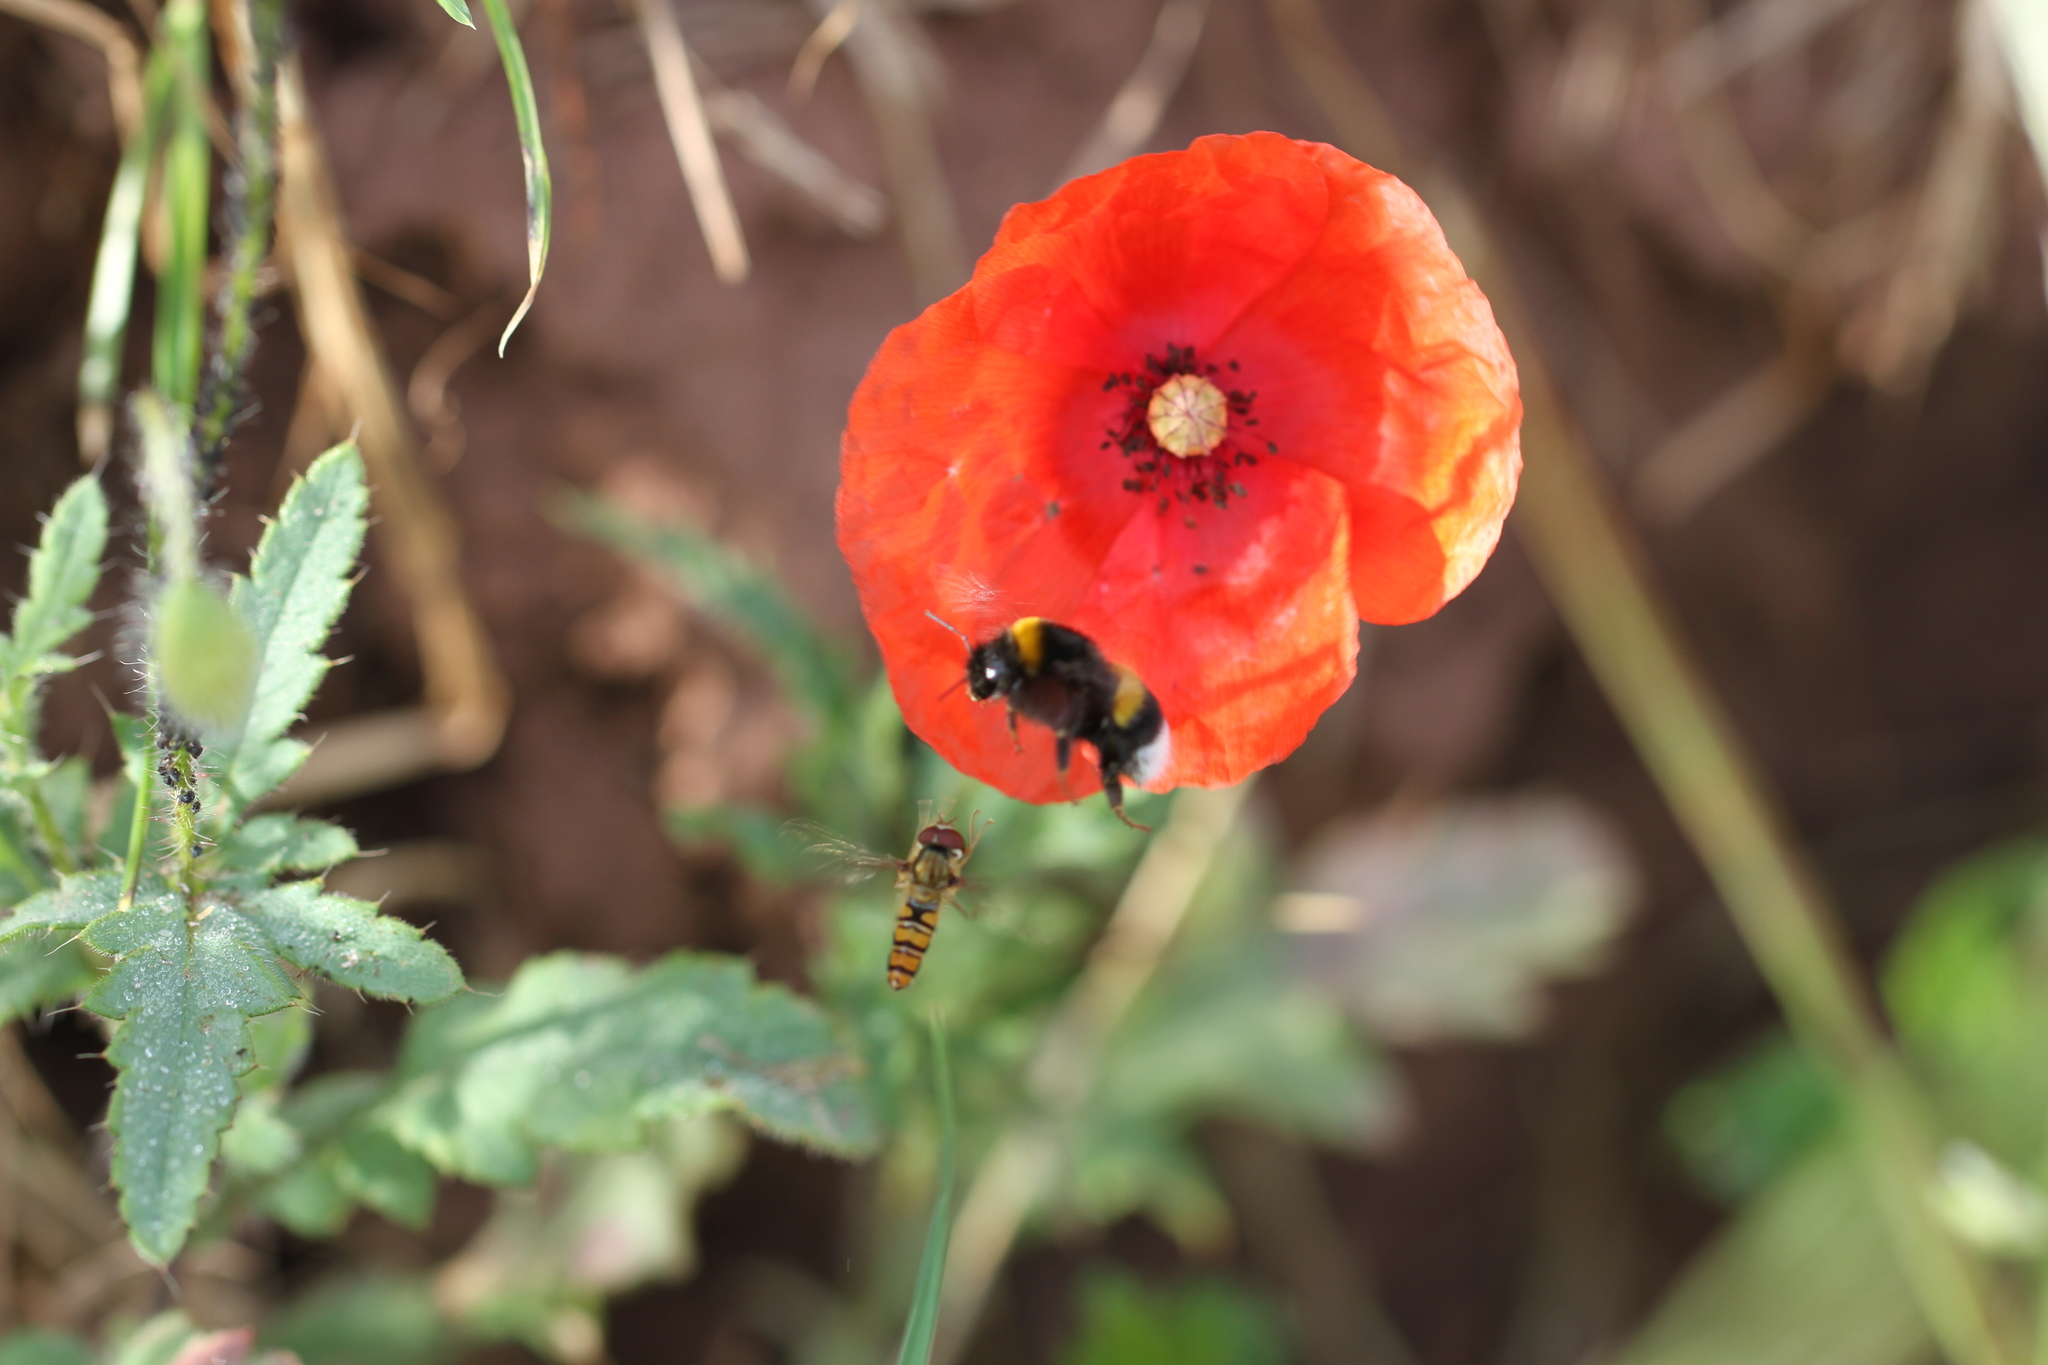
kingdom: Animalia
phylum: Arthropoda
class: Insecta
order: Diptera
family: Syrphidae
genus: Episyrphus
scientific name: Episyrphus balteatus
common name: Marmalade hoverfly
